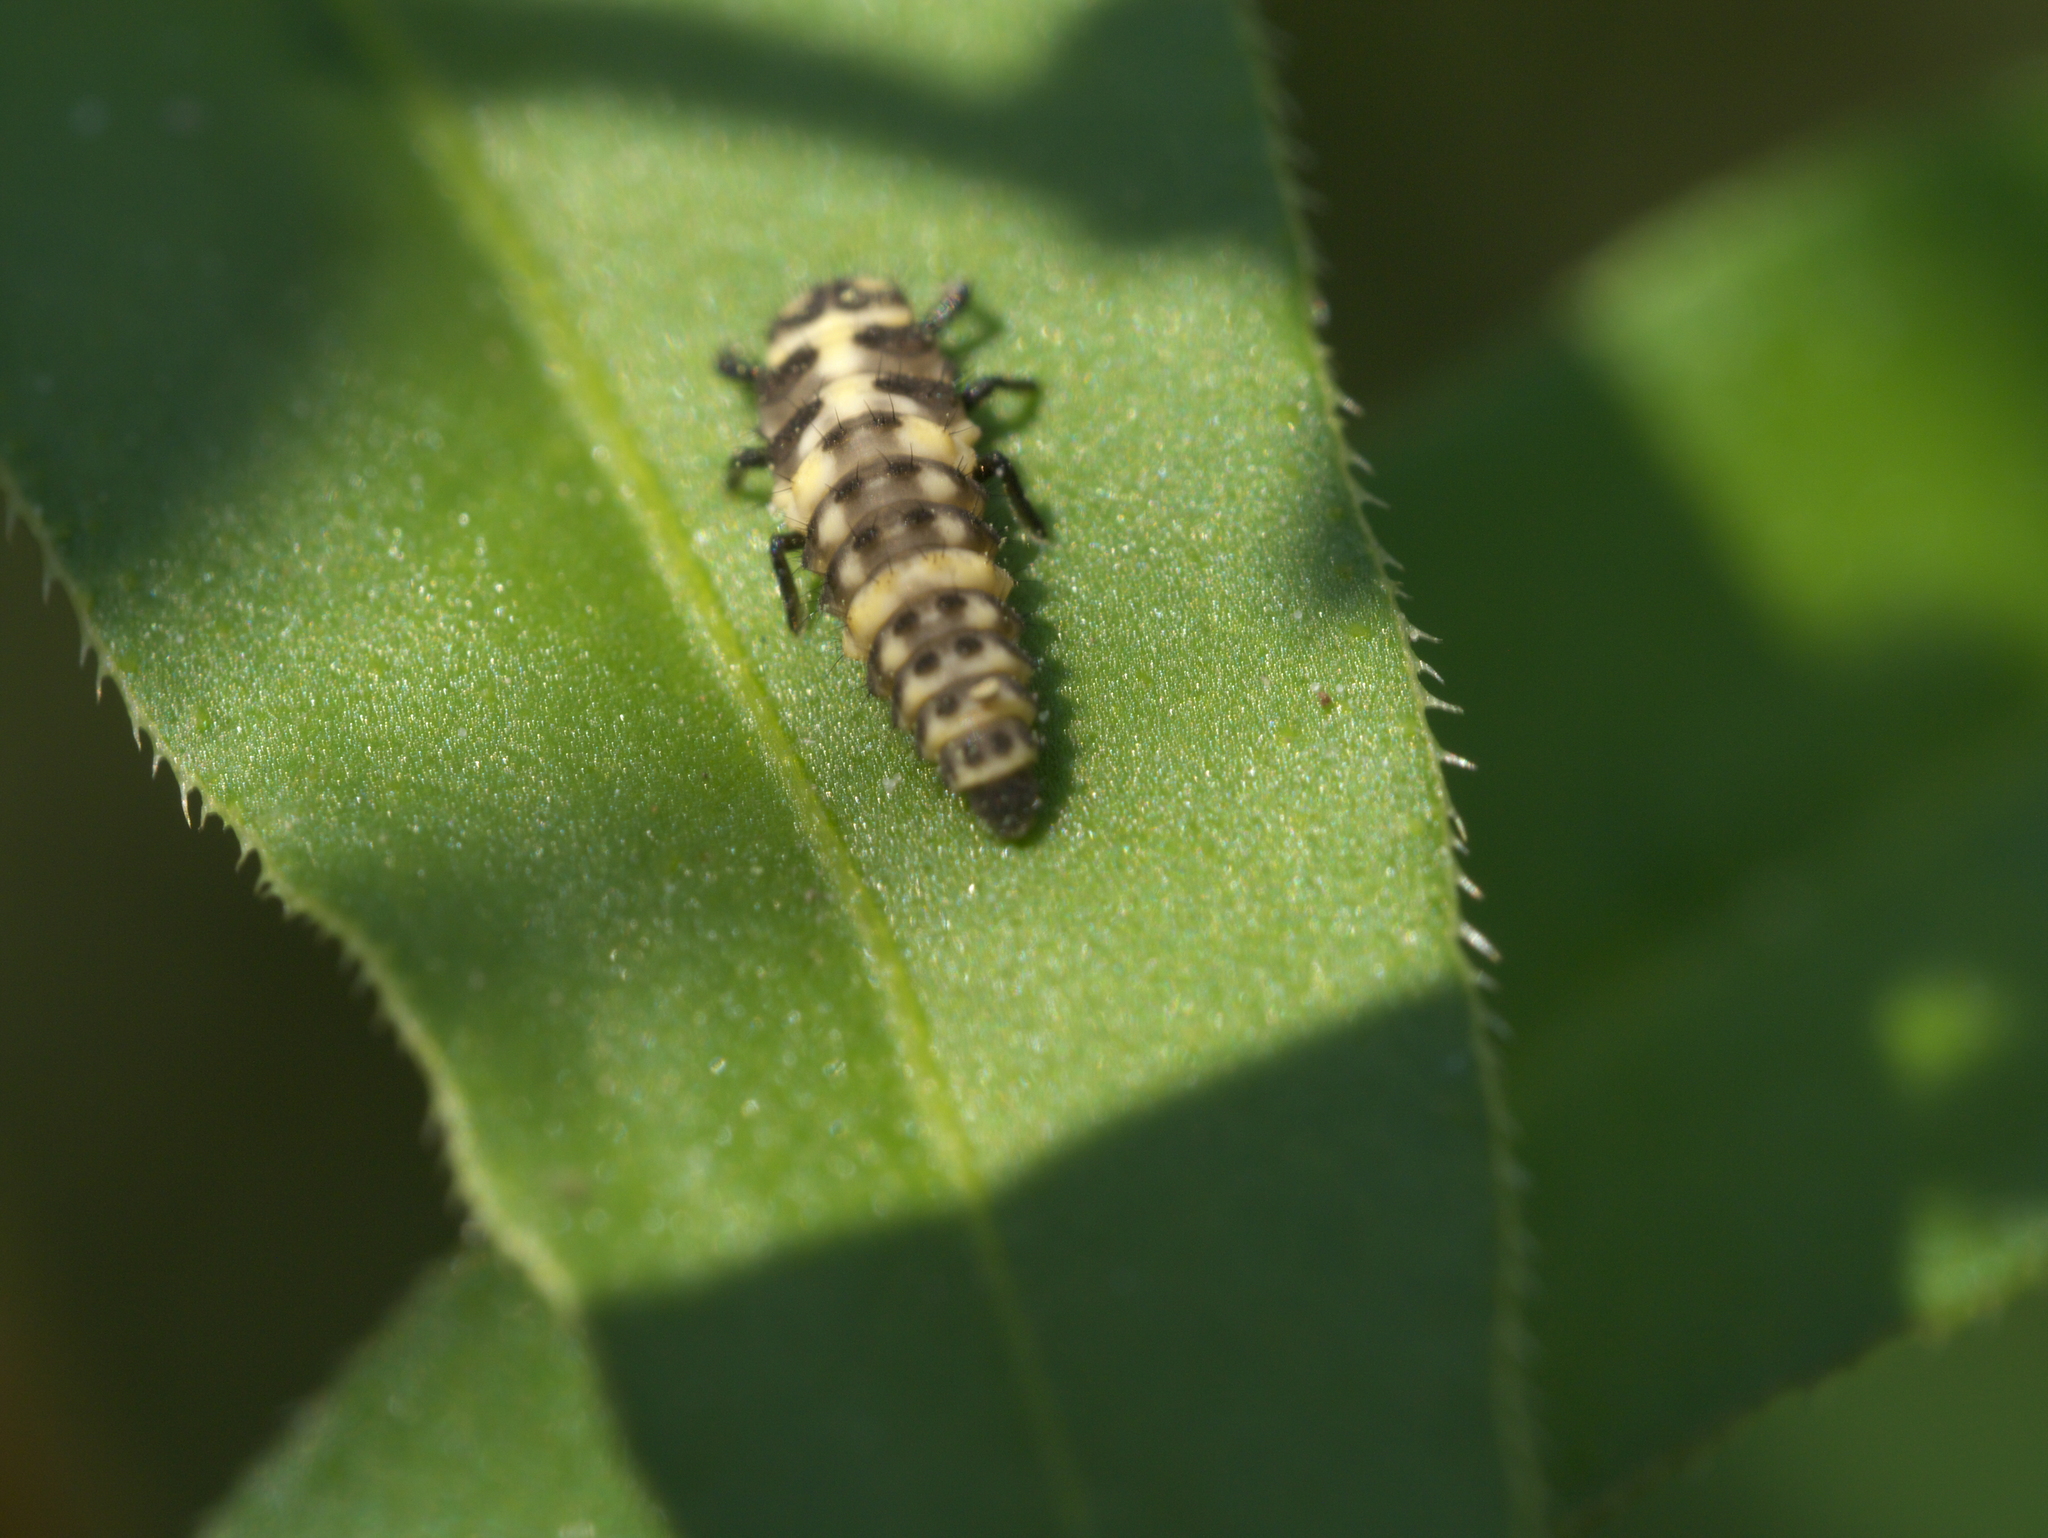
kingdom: Animalia
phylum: Arthropoda
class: Insecta
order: Coleoptera
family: Coccinellidae
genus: Coleomegilla
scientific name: Coleomegilla maculata
